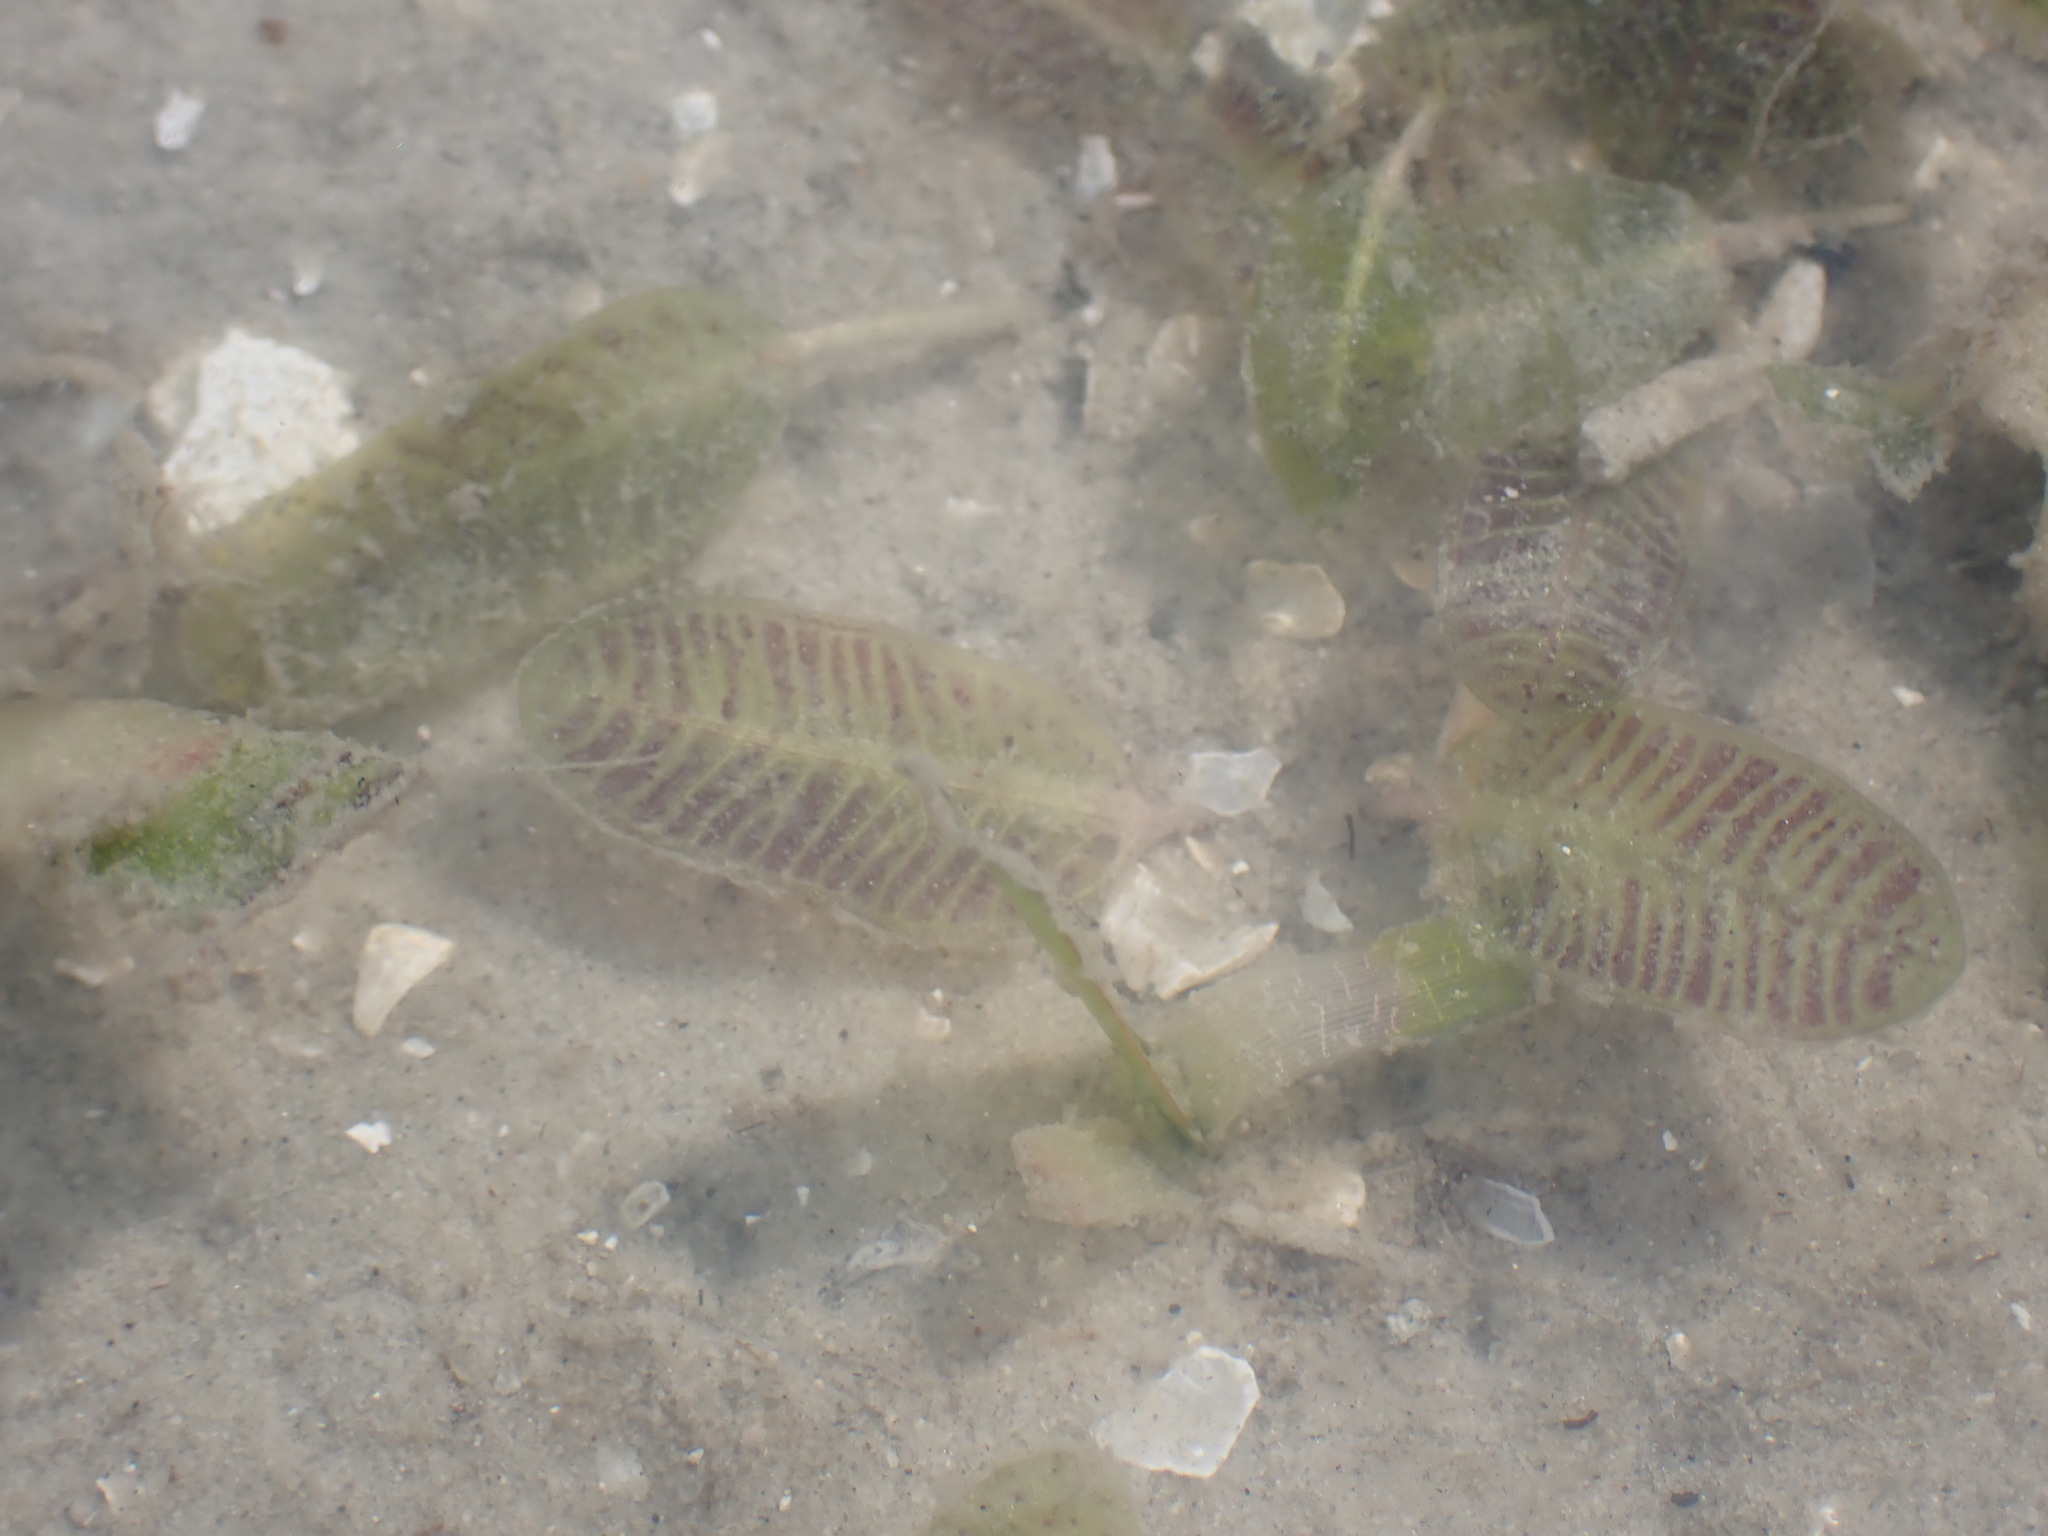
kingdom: Plantae
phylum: Tracheophyta
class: Liliopsida
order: Alismatales
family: Hydrocharitaceae
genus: Halophila
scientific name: Halophila ovalis
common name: Species code: ho
